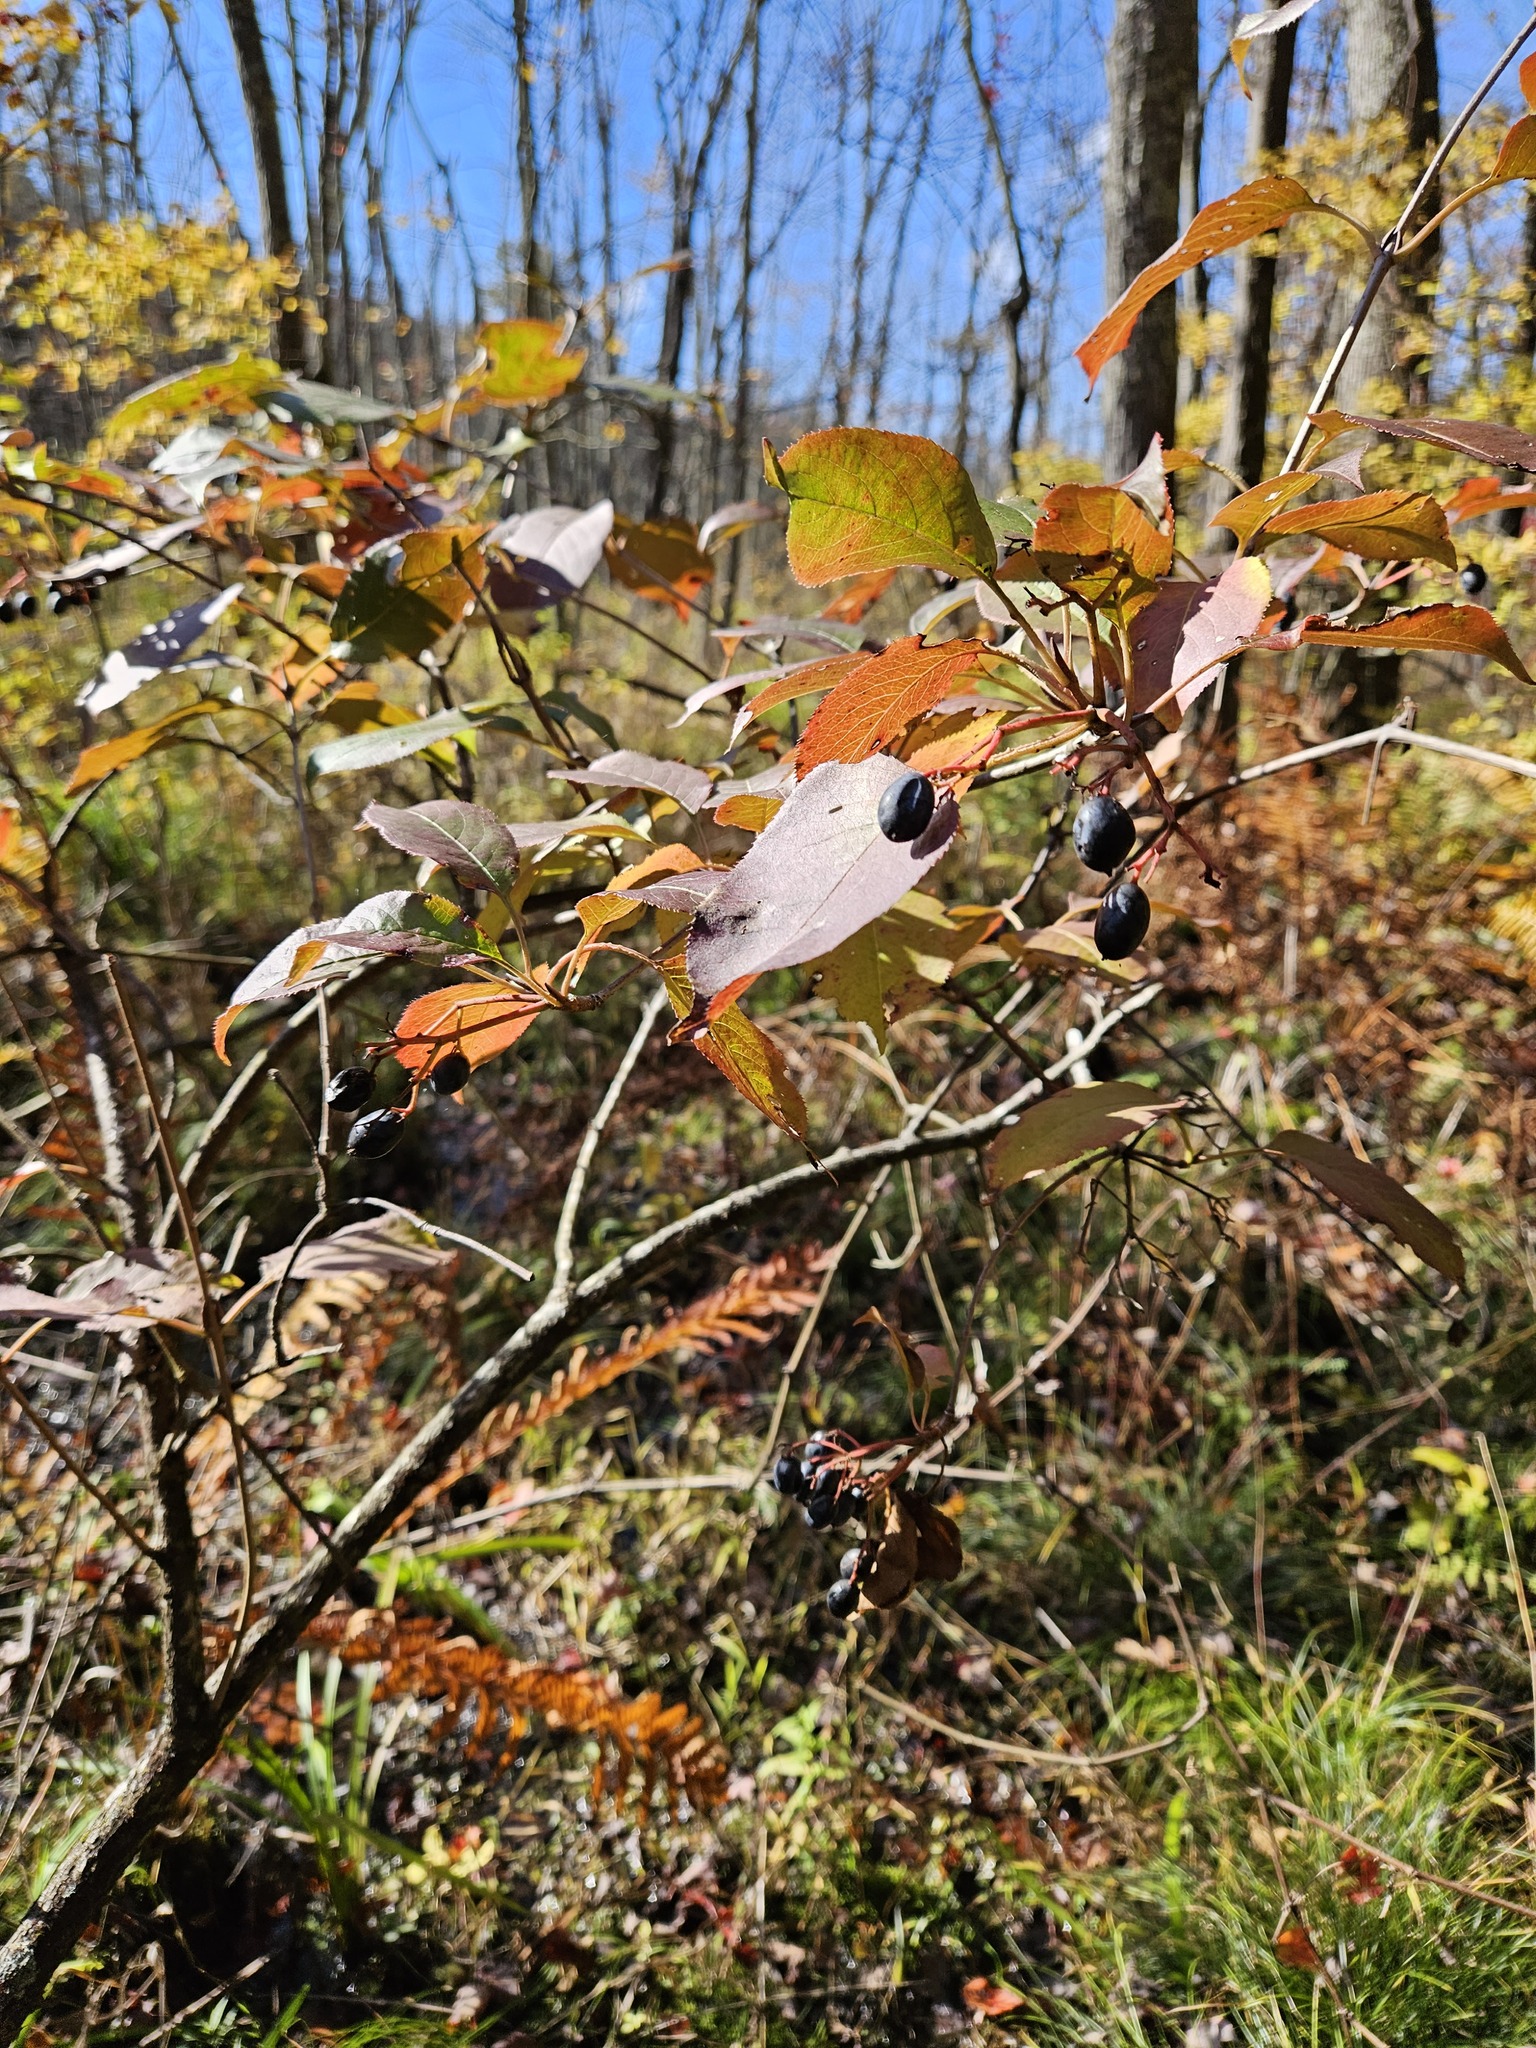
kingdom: Plantae
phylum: Tracheophyta
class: Magnoliopsida
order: Dipsacales
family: Viburnaceae
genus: Viburnum
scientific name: Viburnum lentago
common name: Black haw
